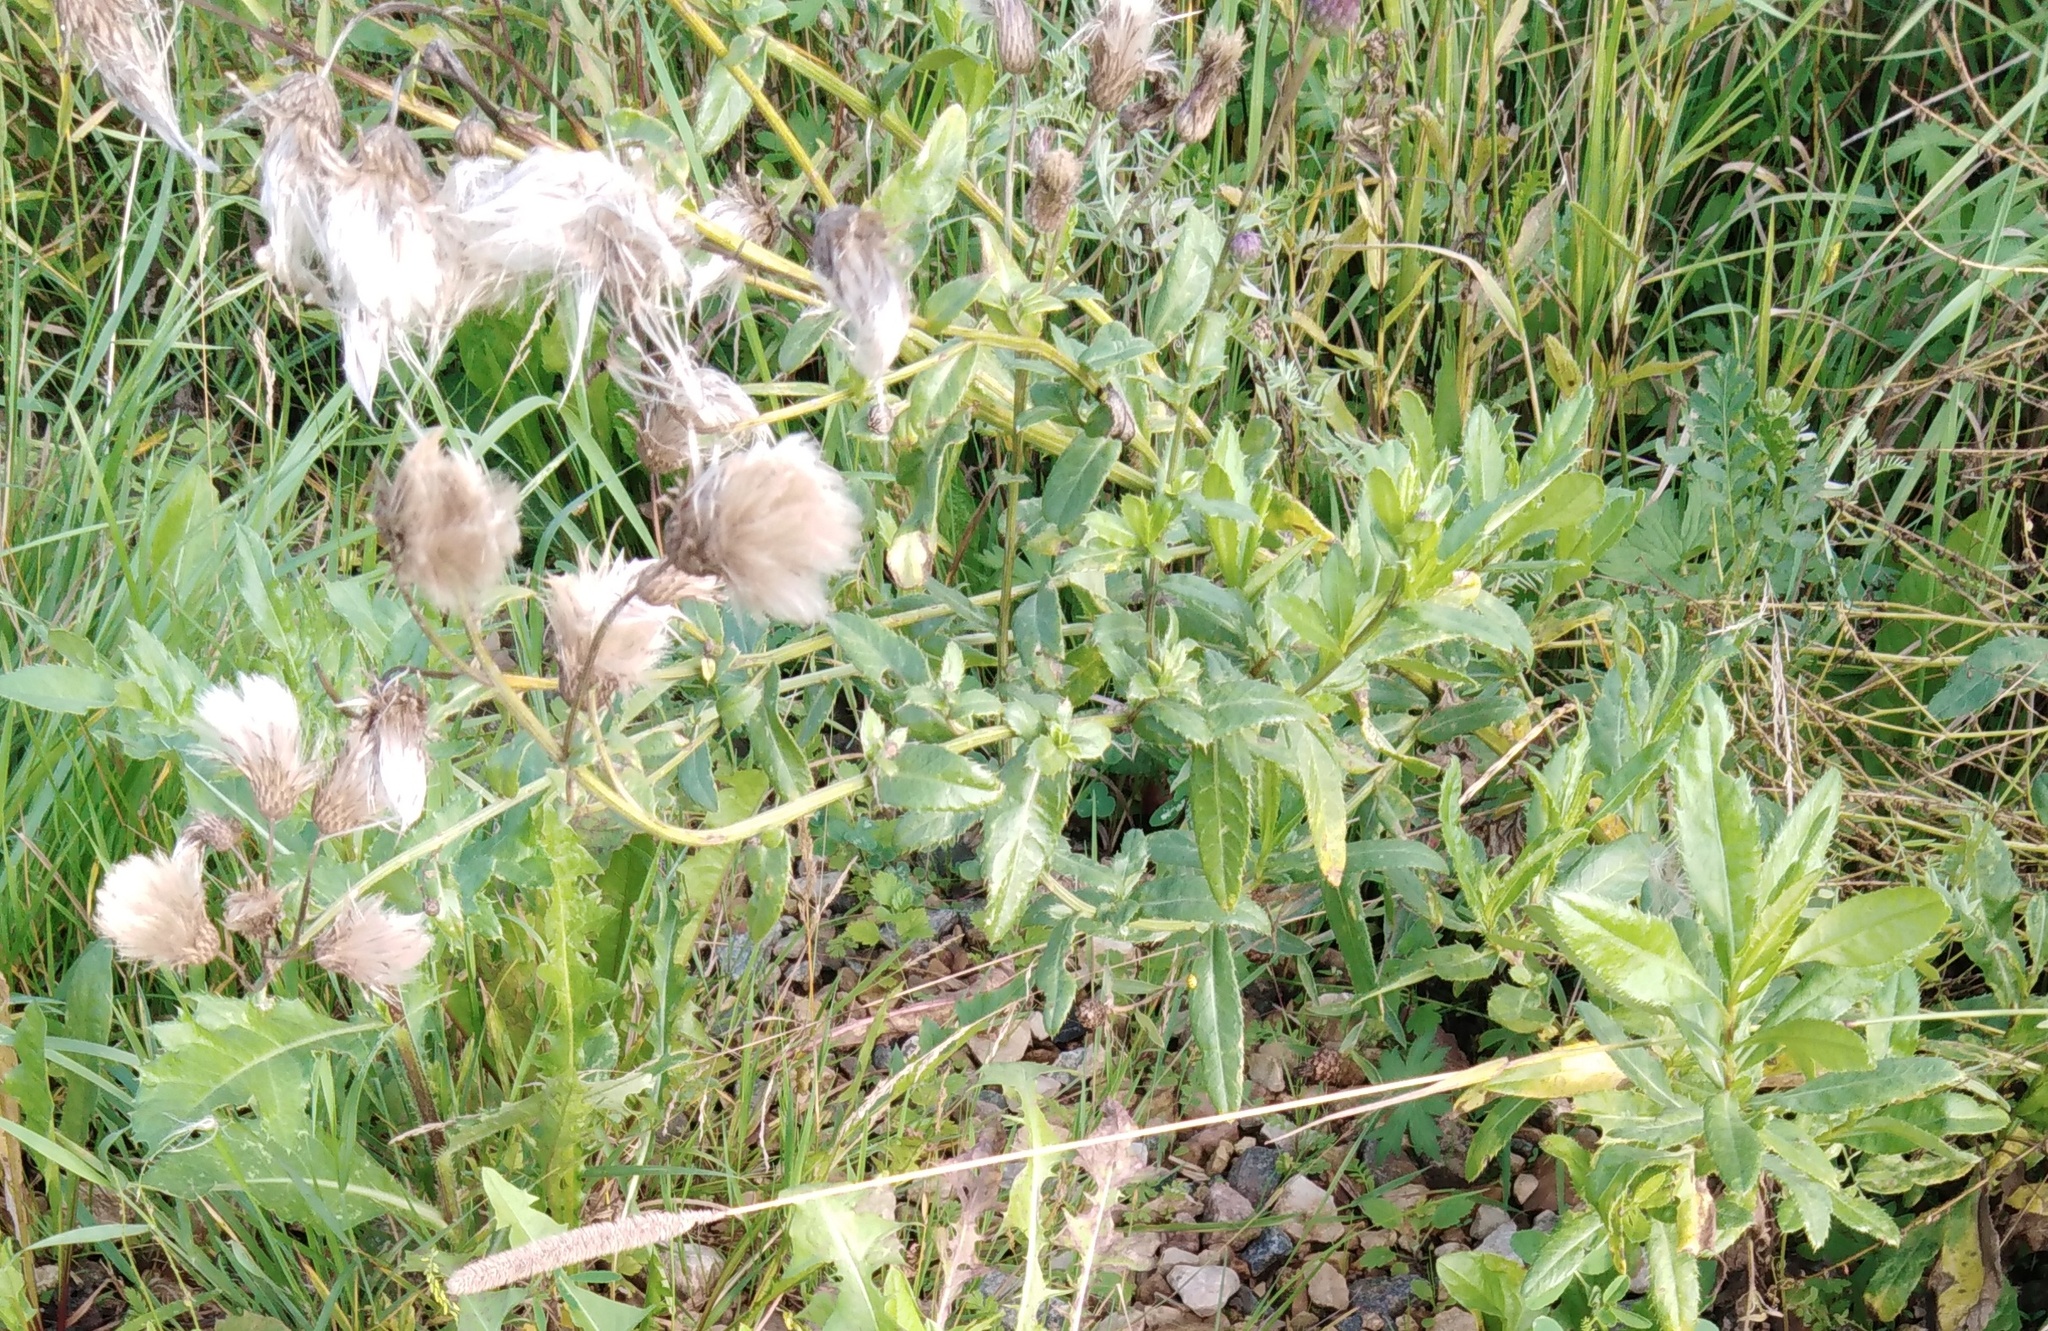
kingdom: Plantae
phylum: Tracheophyta
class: Magnoliopsida
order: Asterales
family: Asteraceae
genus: Cirsium
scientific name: Cirsium arvense
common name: Creeping thistle
